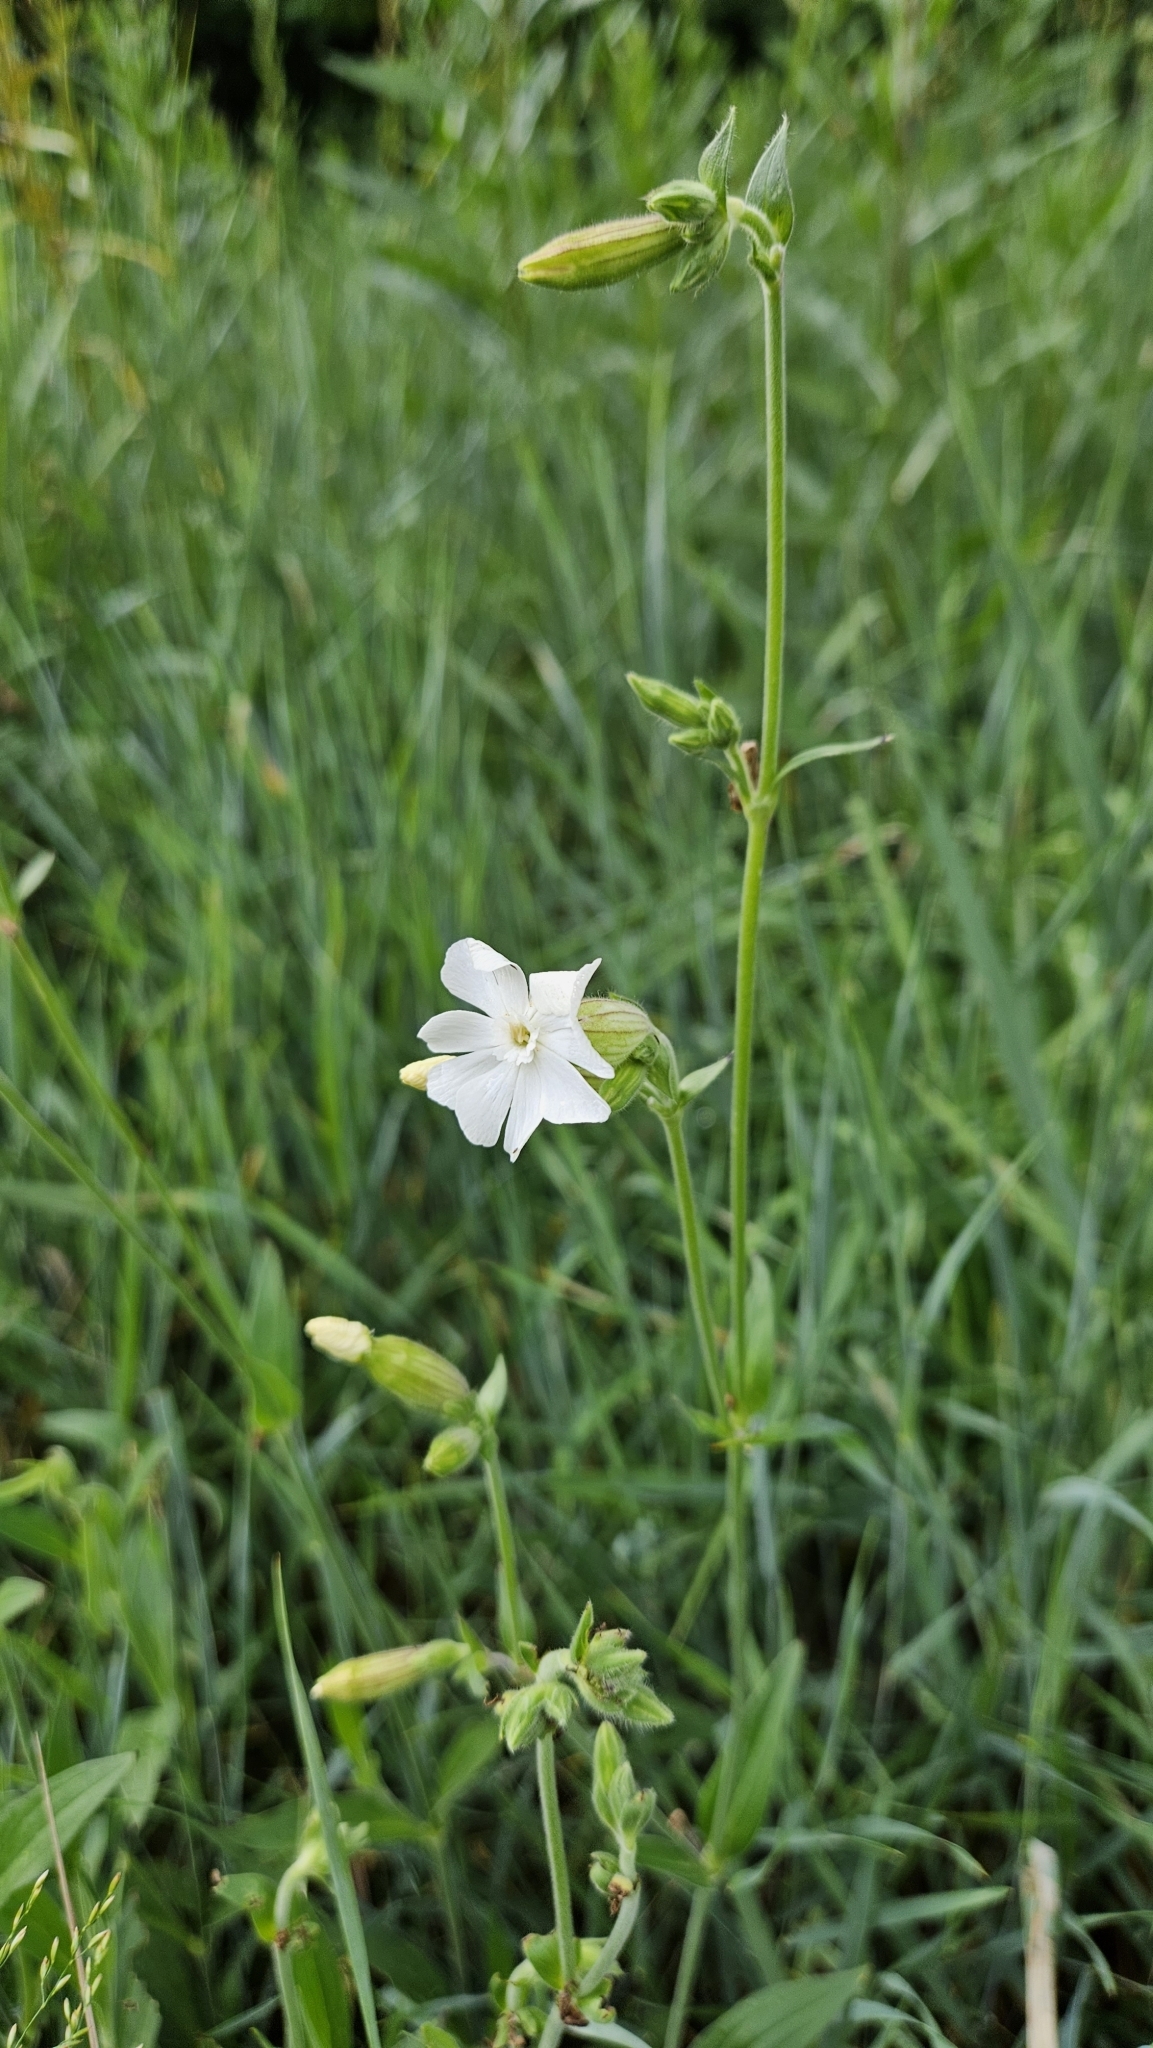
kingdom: Plantae
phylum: Tracheophyta
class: Magnoliopsida
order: Caryophyllales
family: Caryophyllaceae
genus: Silene
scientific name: Silene latifolia
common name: White campion
